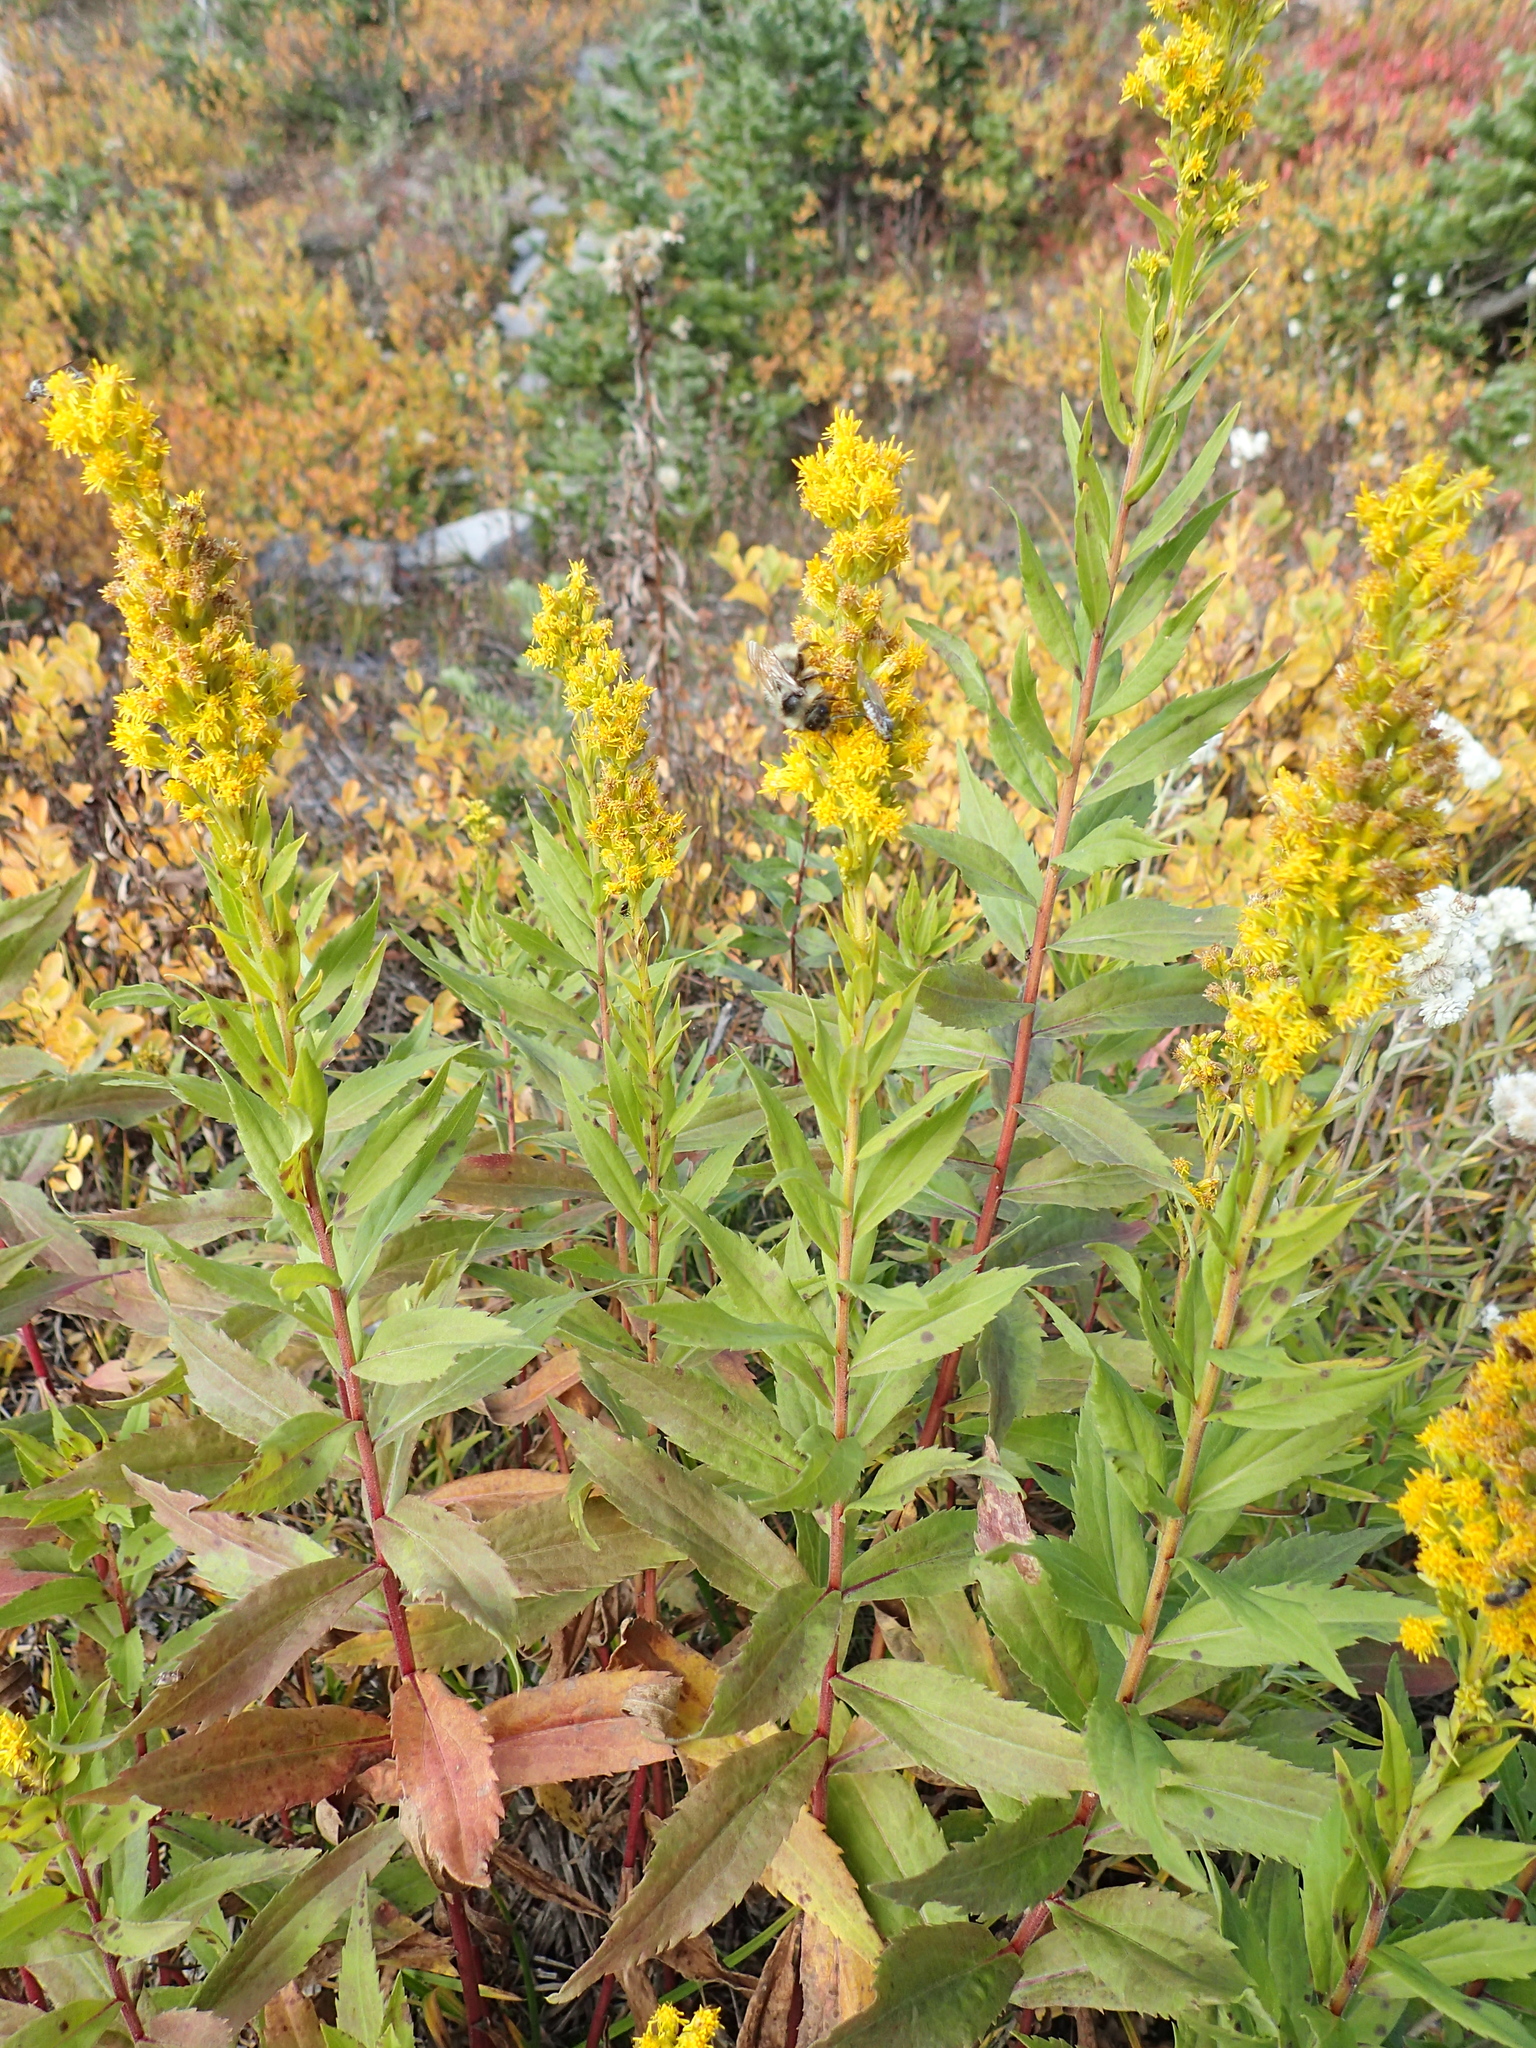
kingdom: Plantae
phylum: Tracheophyta
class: Magnoliopsida
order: Asterales
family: Asteraceae
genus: Solidago
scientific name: Solidago lepida
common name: Western canada goldenrod
